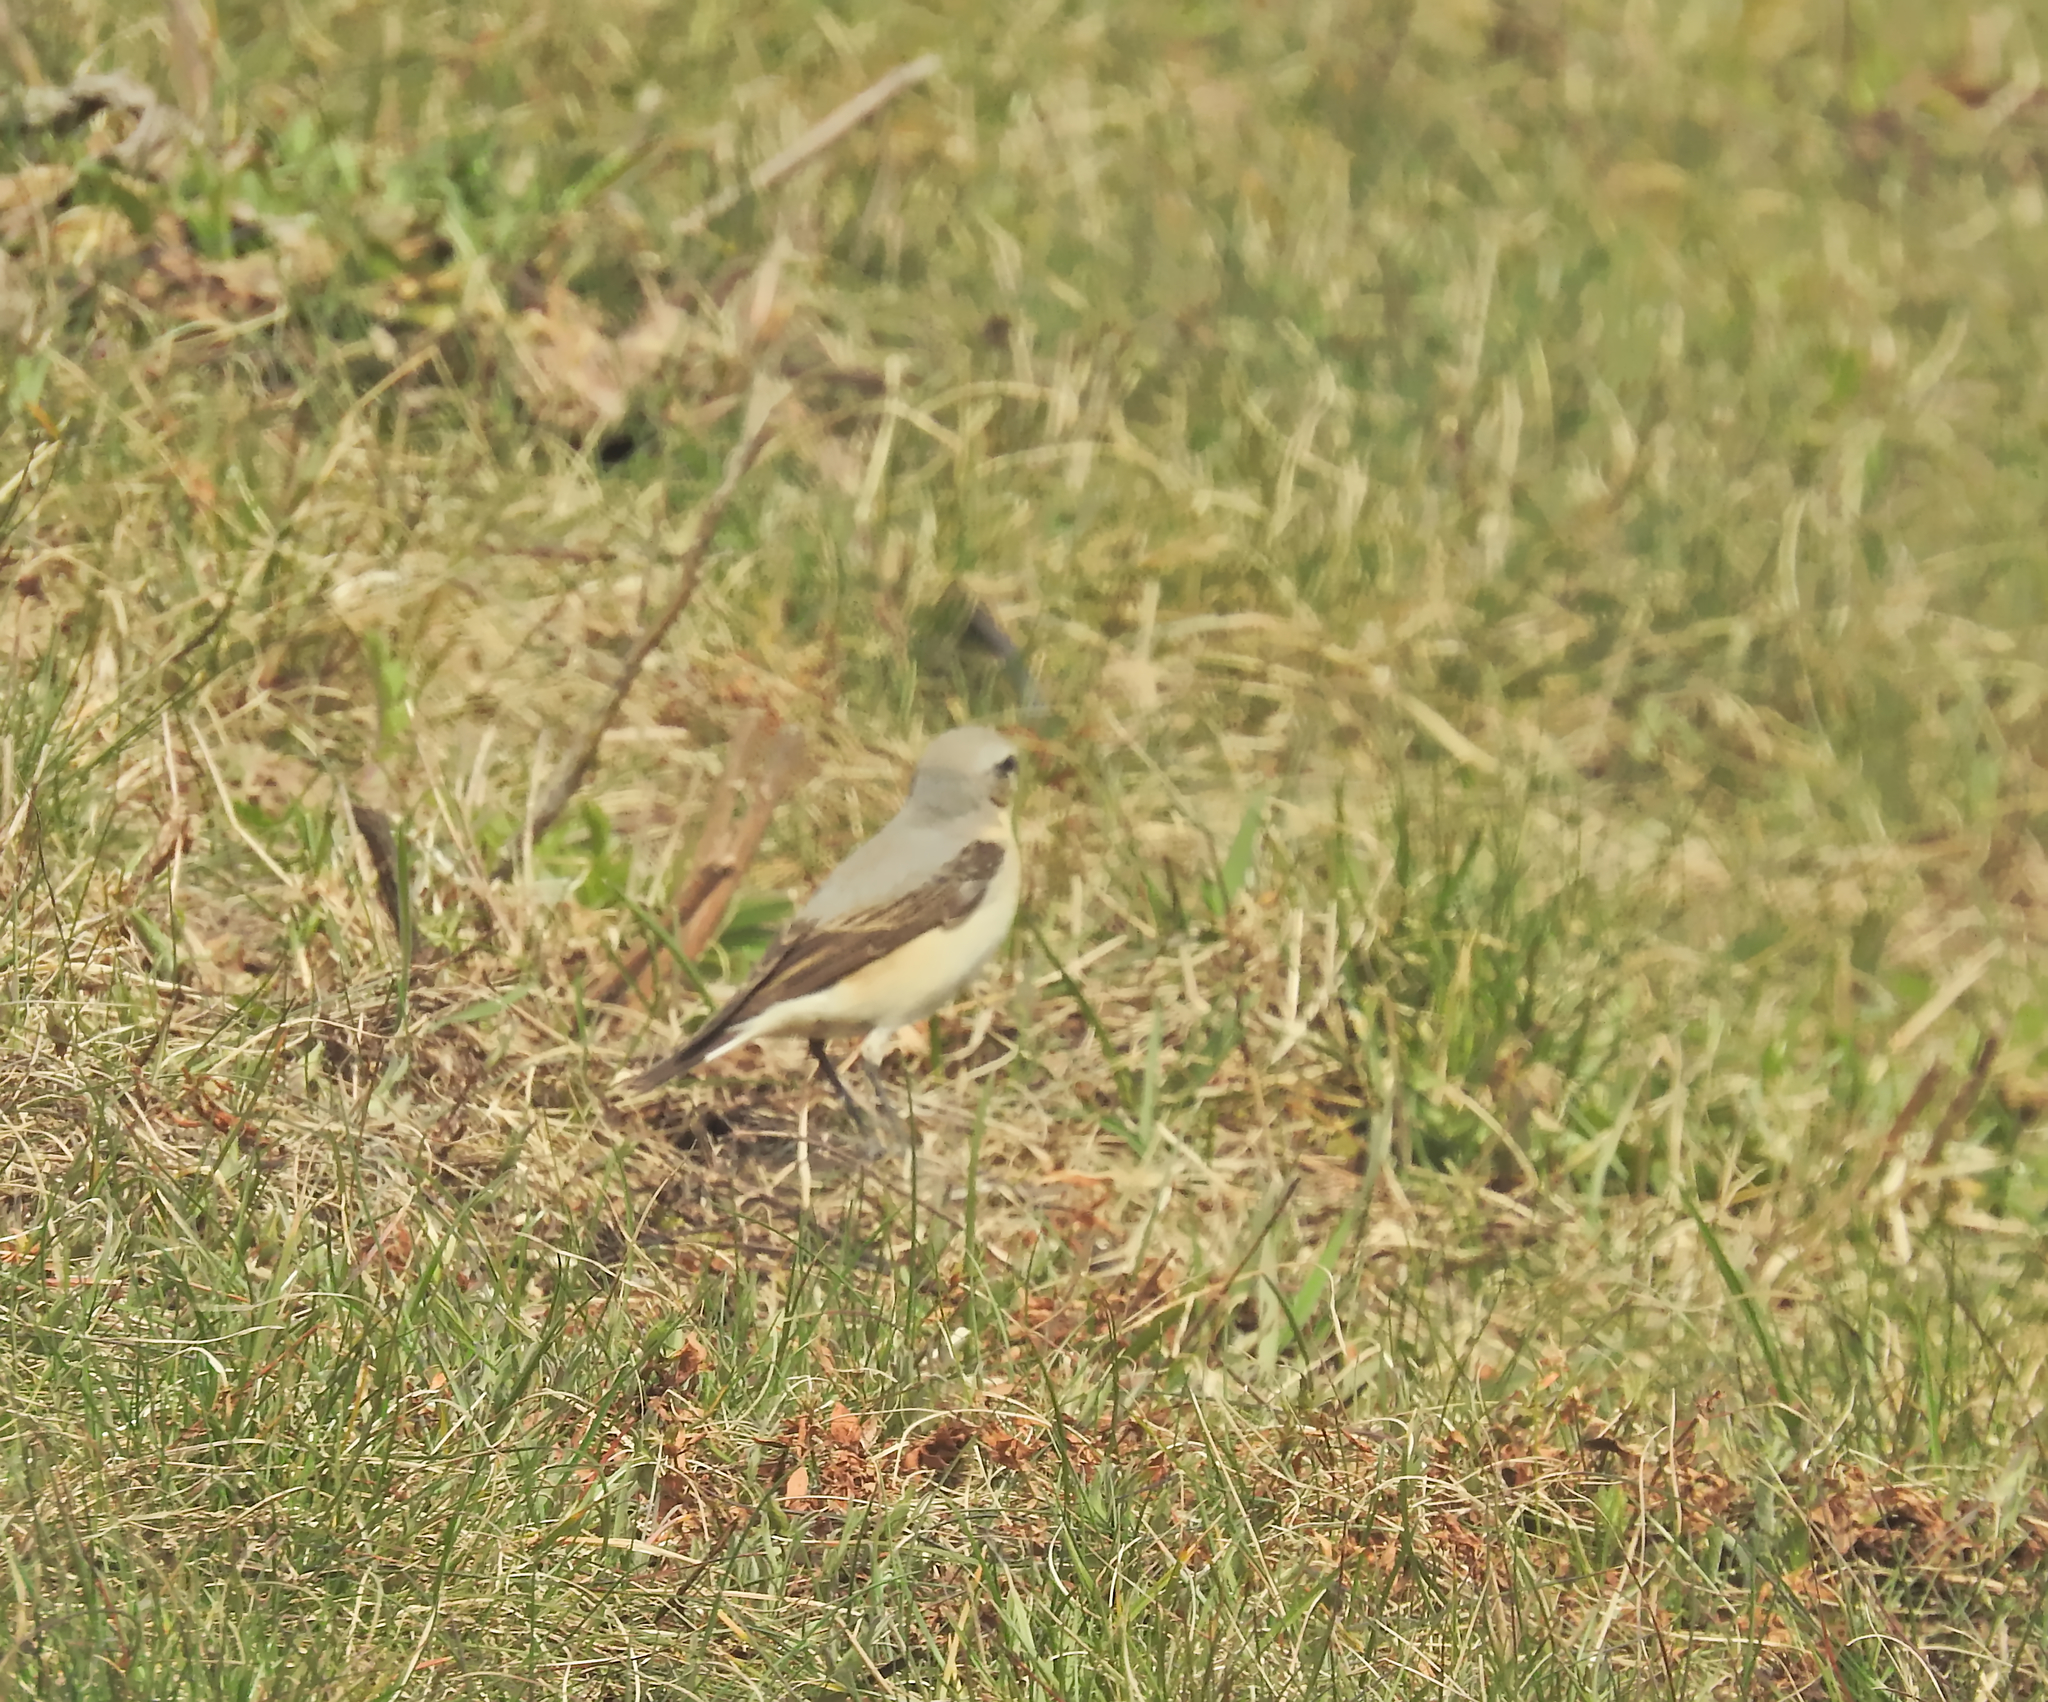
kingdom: Animalia
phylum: Chordata
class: Aves
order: Passeriformes
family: Muscicapidae
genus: Oenanthe
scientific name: Oenanthe oenanthe
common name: Northern wheatear
